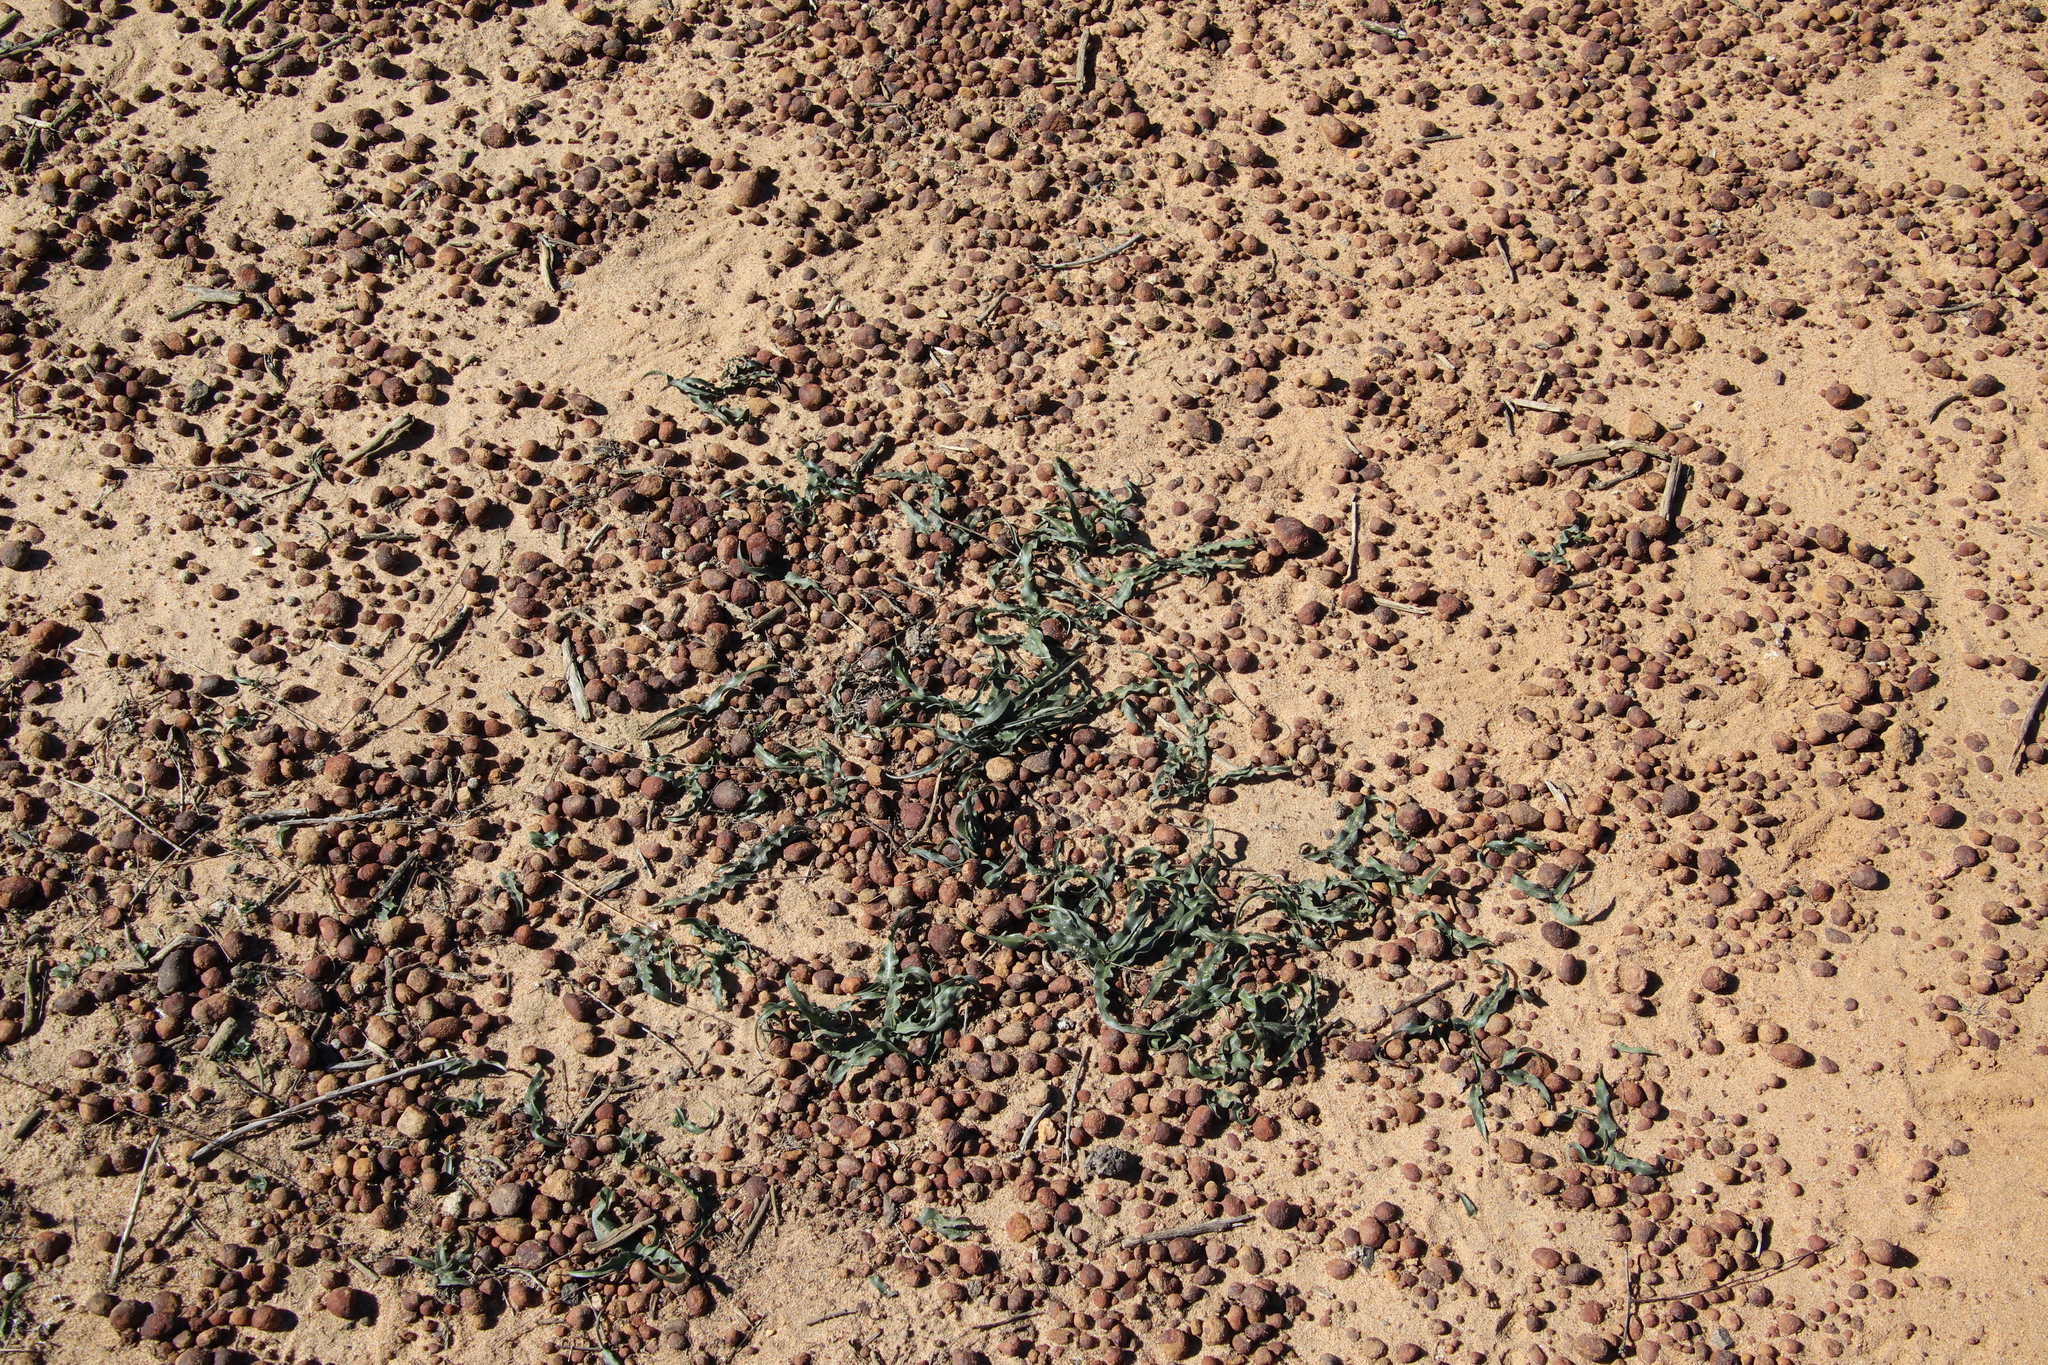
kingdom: Plantae
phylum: Tracheophyta
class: Liliopsida
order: Asparagales
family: Asparagaceae
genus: Hooveria
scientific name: Hooveria parviflora
